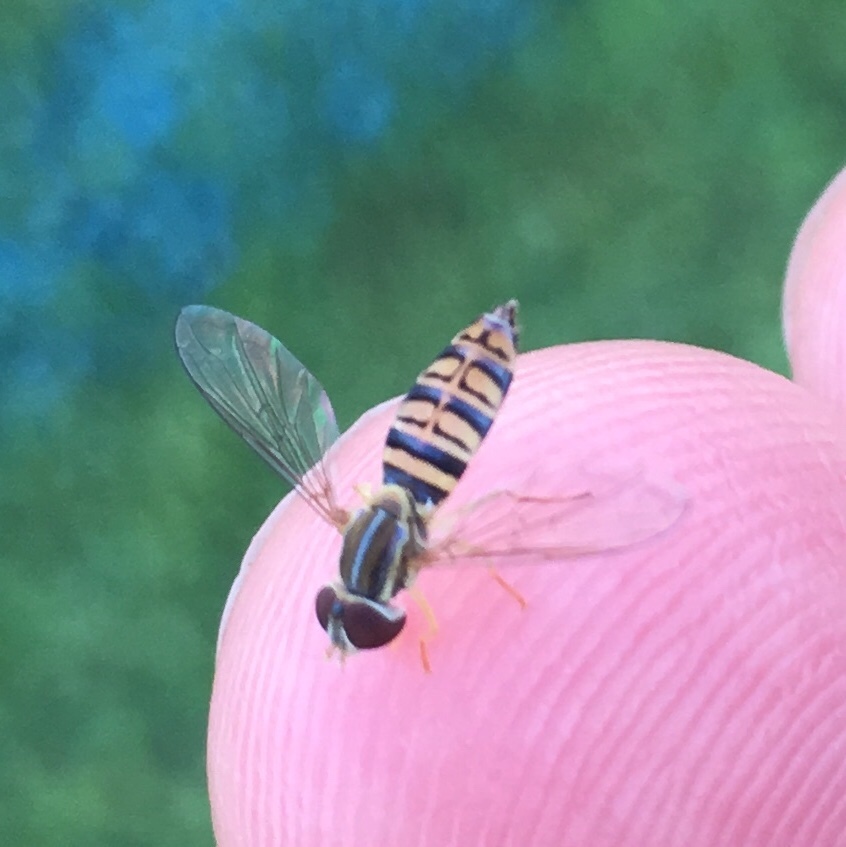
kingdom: Animalia
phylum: Arthropoda
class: Insecta
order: Diptera
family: Syrphidae
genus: Toxomerus
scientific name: Toxomerus politus
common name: Maize calligrapher
